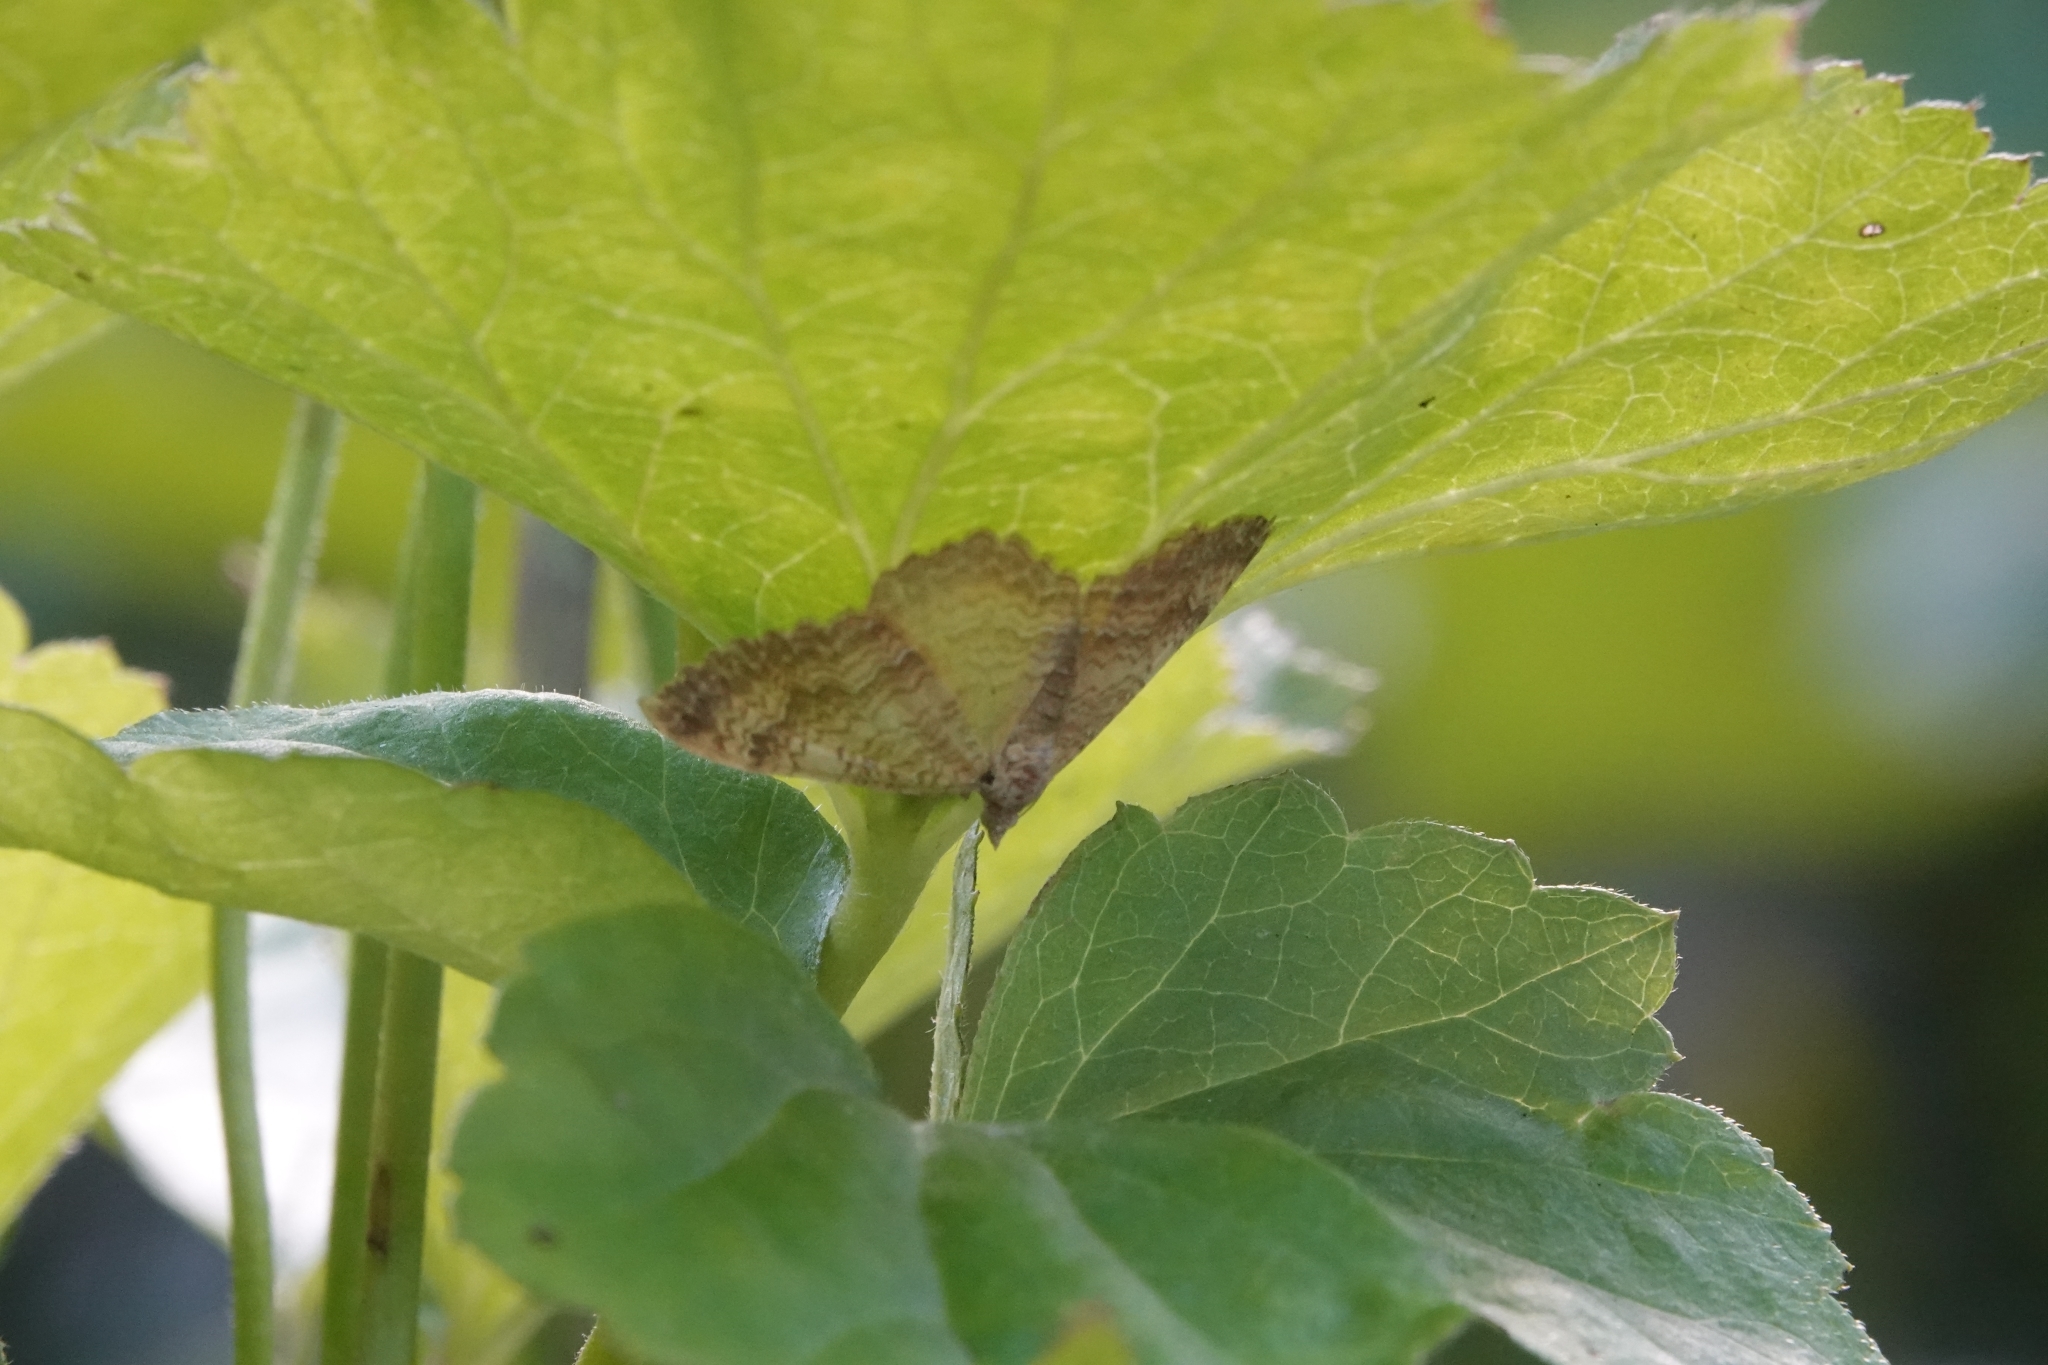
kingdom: Animalia
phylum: Arthropoda
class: Insecta
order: Lepidoptera
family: Geometridae
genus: Camptogramma
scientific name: Camptogramma bilineata
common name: Yellow shell
